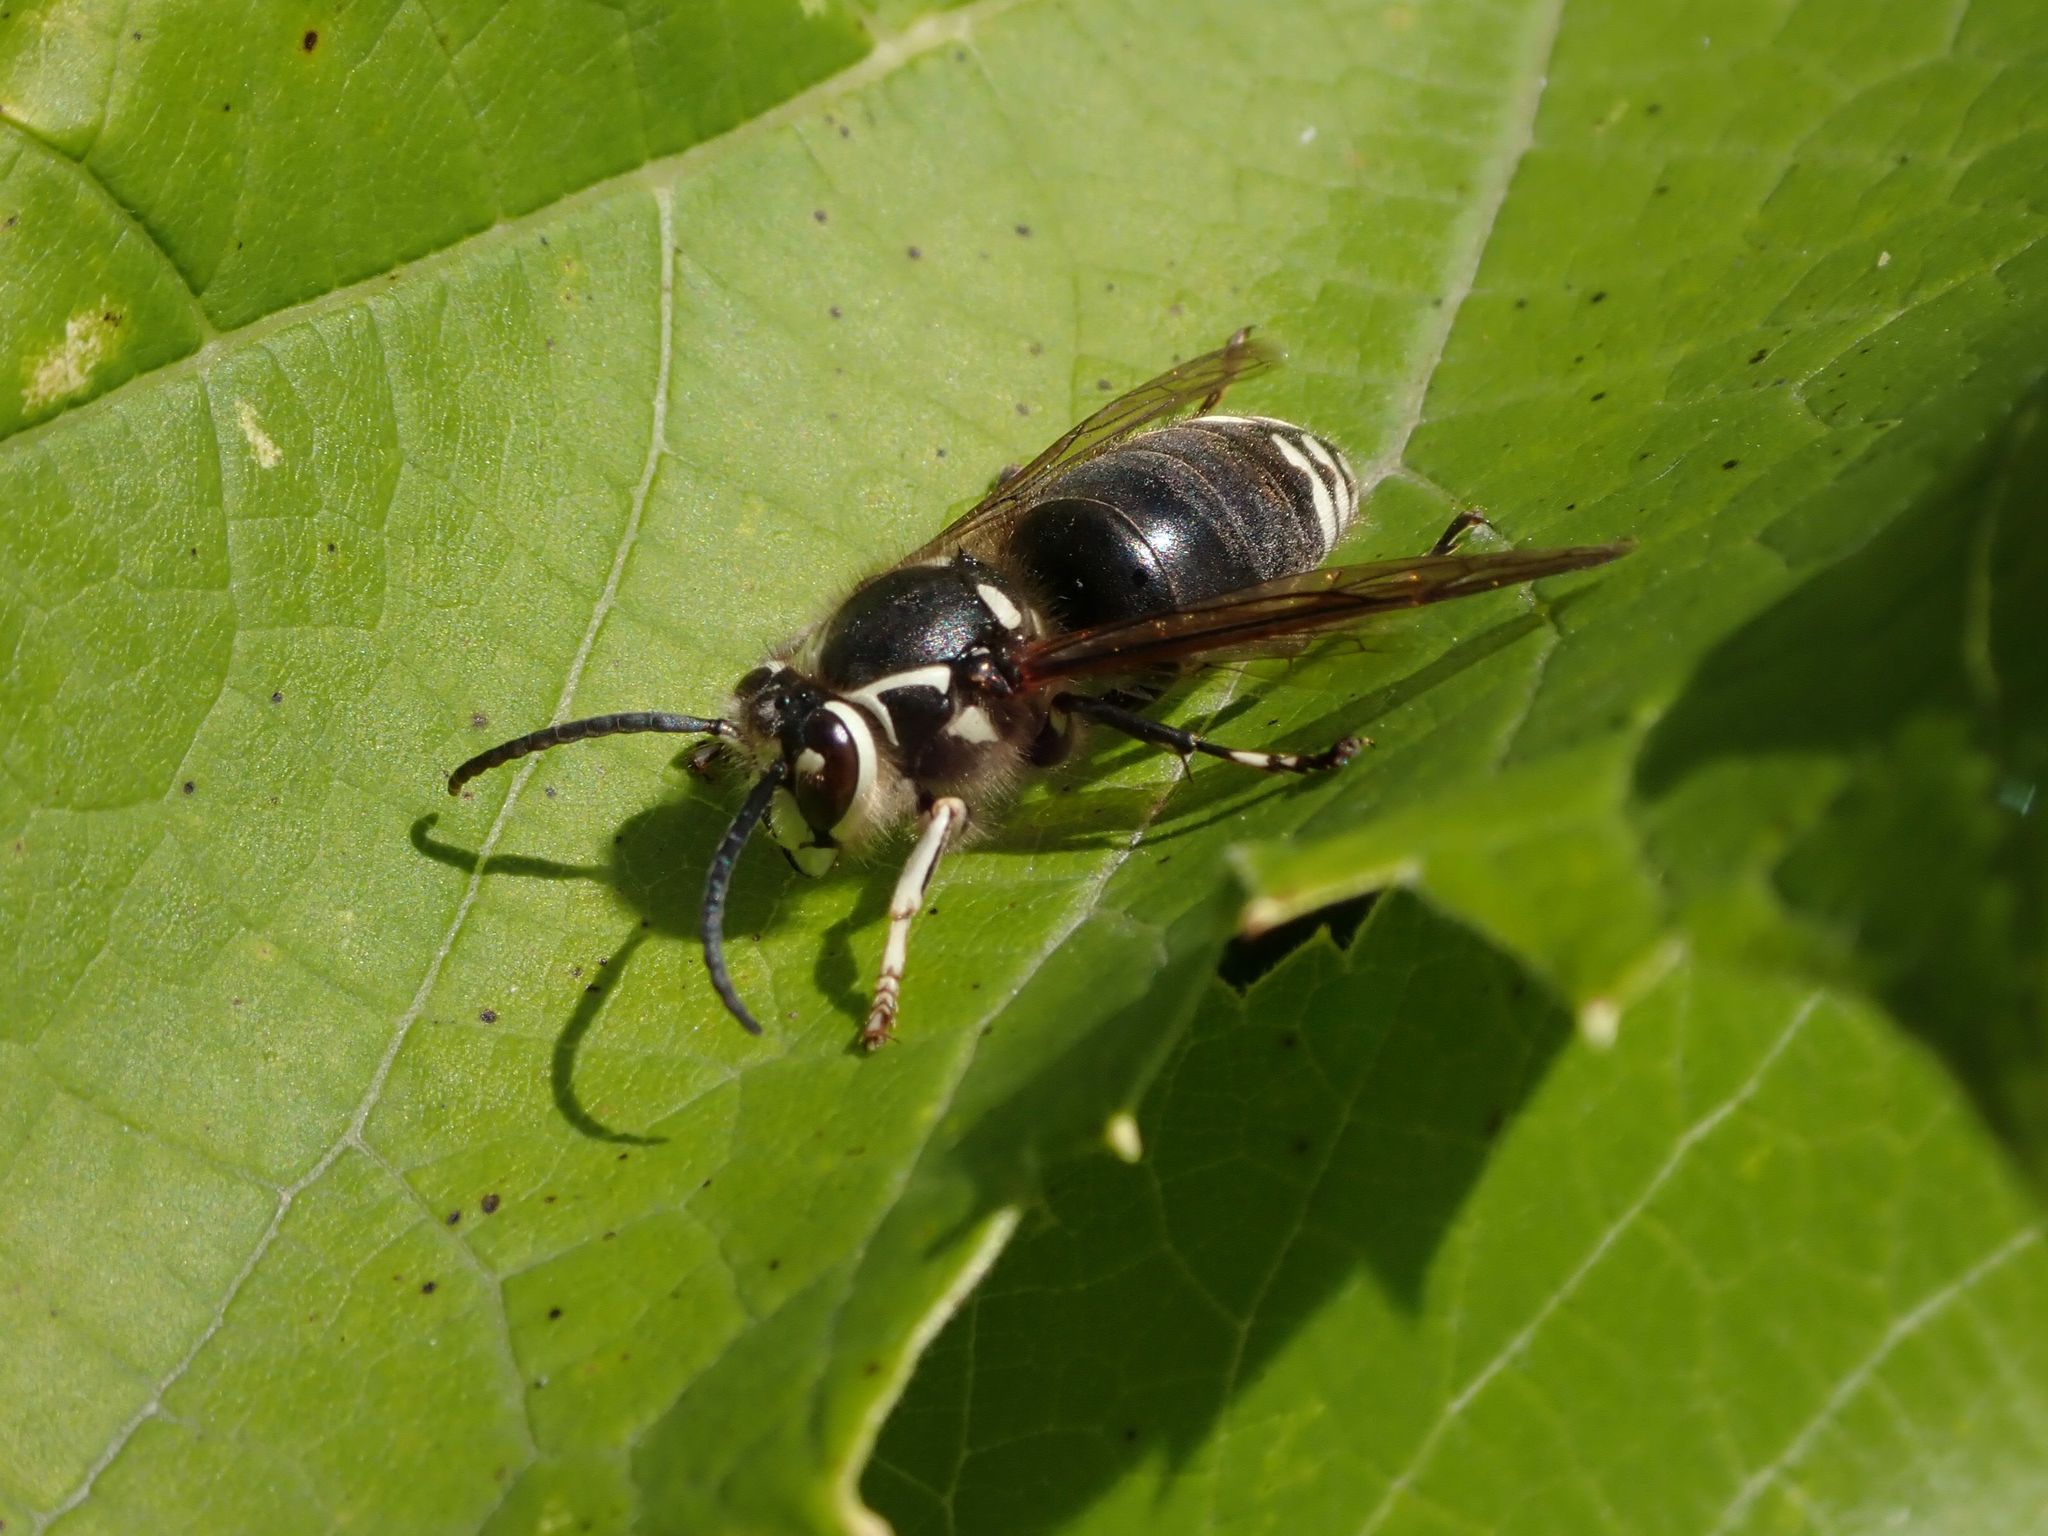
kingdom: Animalia
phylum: Arthropoda
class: Insecta
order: Hymenoptera
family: Vespidae
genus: Dolichovespula
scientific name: Dolichovespula maculata
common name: Bald-faced hornet
